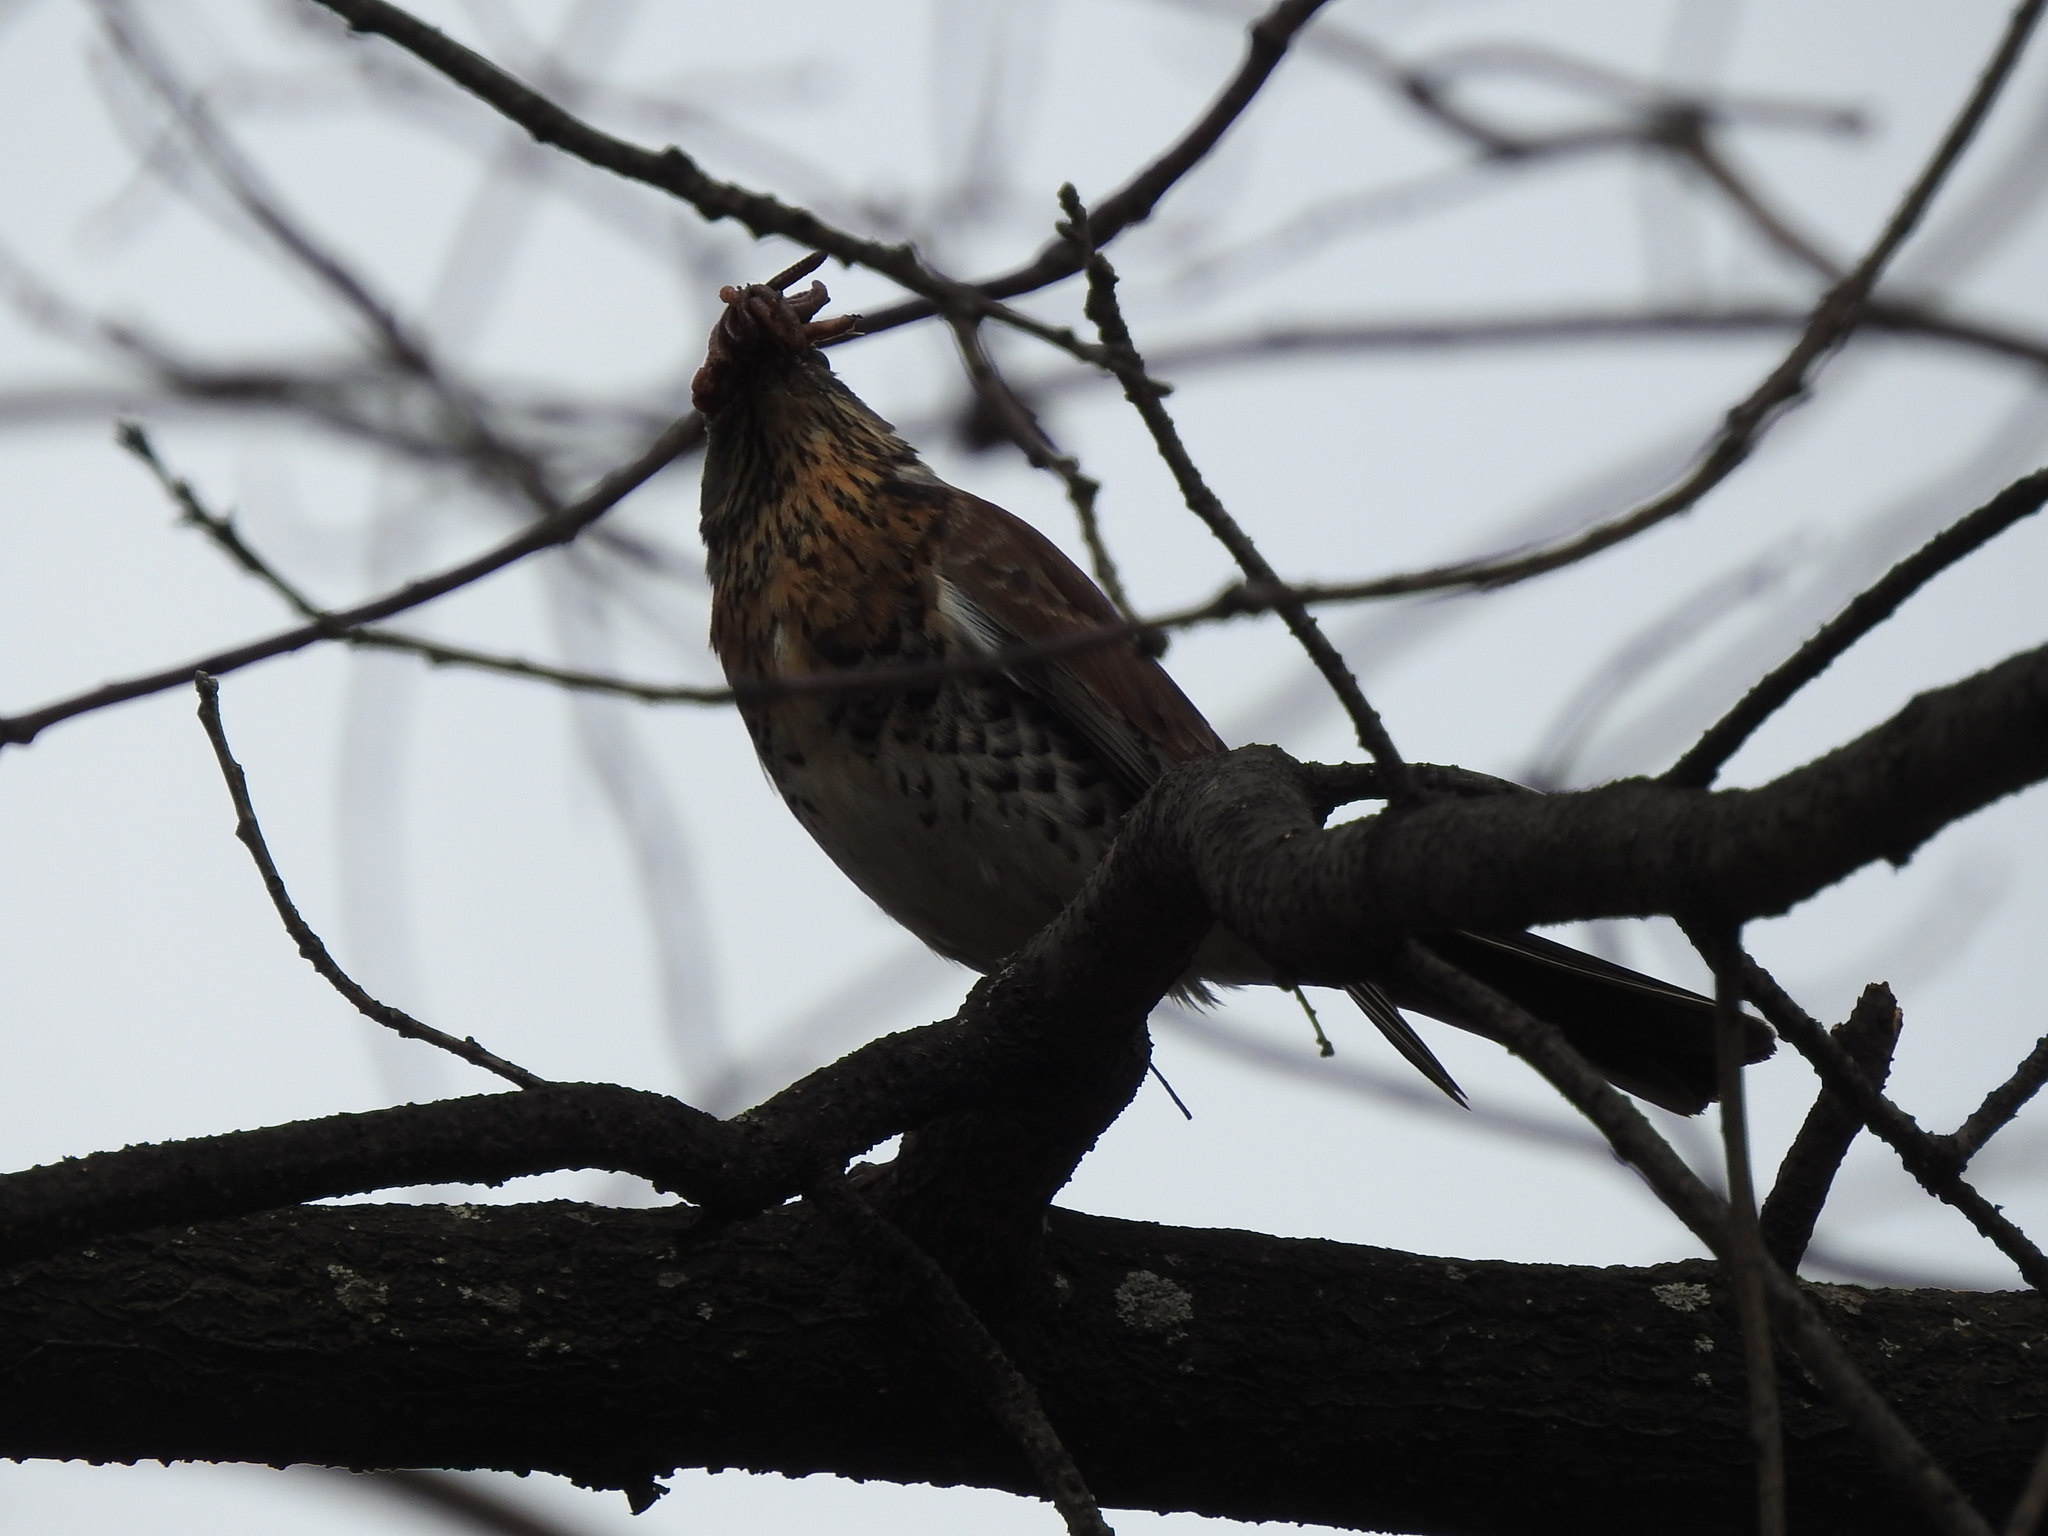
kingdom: Animalia
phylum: Chordata
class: Aves
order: Passeriformes
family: Turdidae
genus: Turdus
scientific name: Turdus pilaris
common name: Fieldfare
